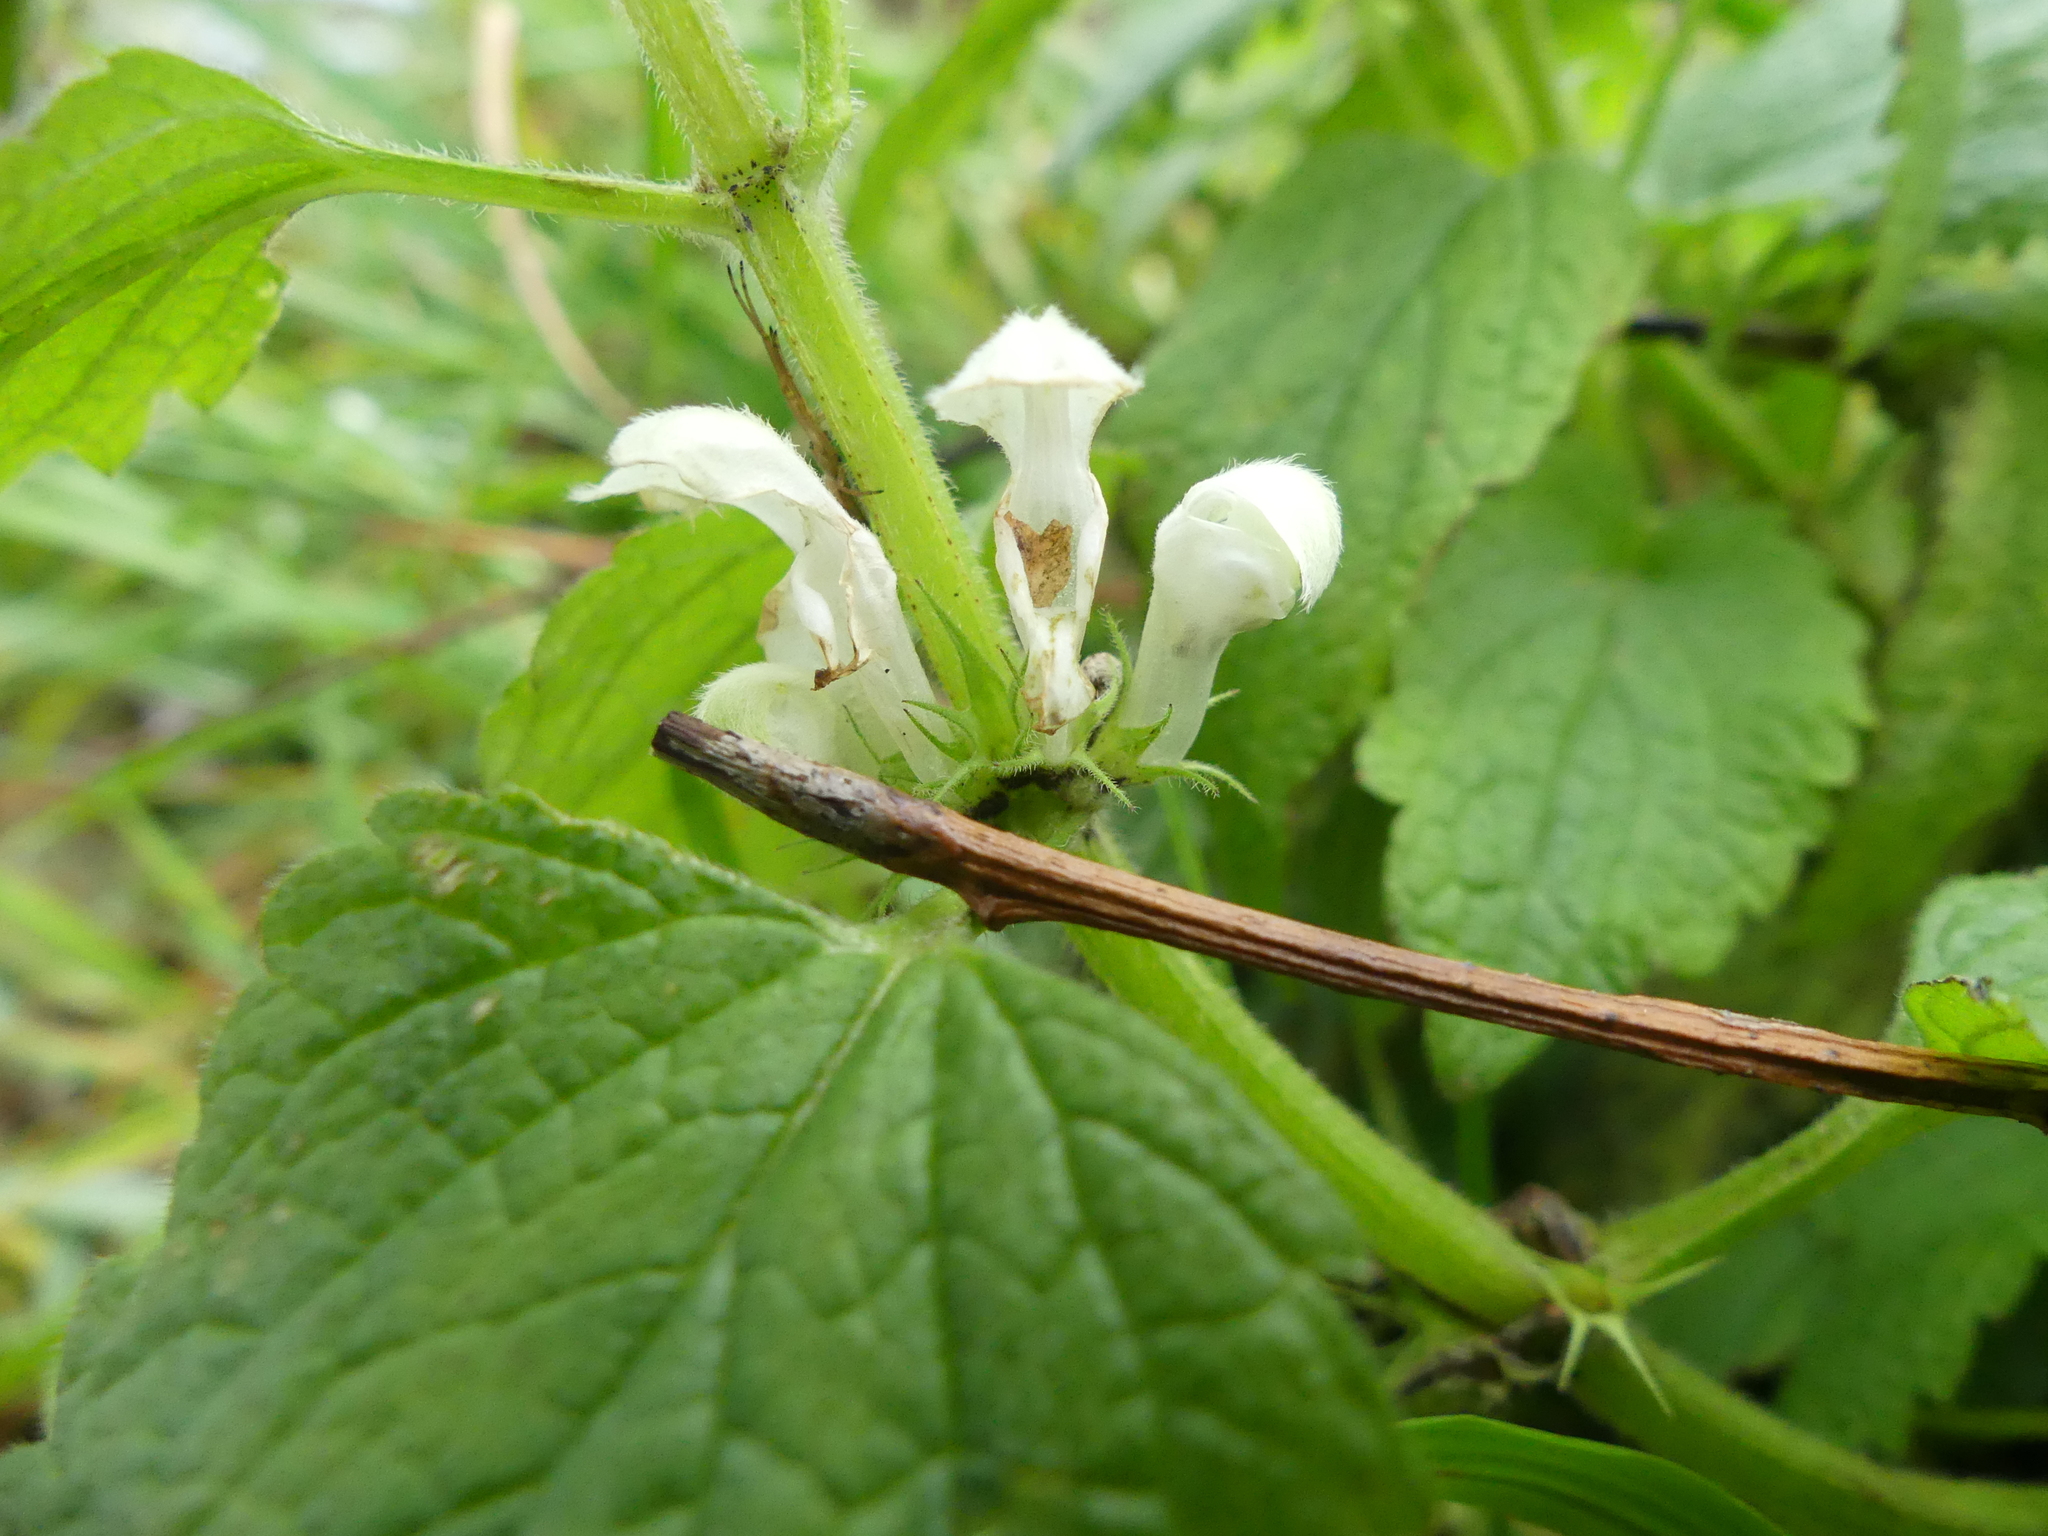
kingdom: Plantae
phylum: Tracheophyta
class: Magnoliopsida
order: Lamiales
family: Lamiaceae
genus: Lamium
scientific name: Lamium album
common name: White dead-nettle
